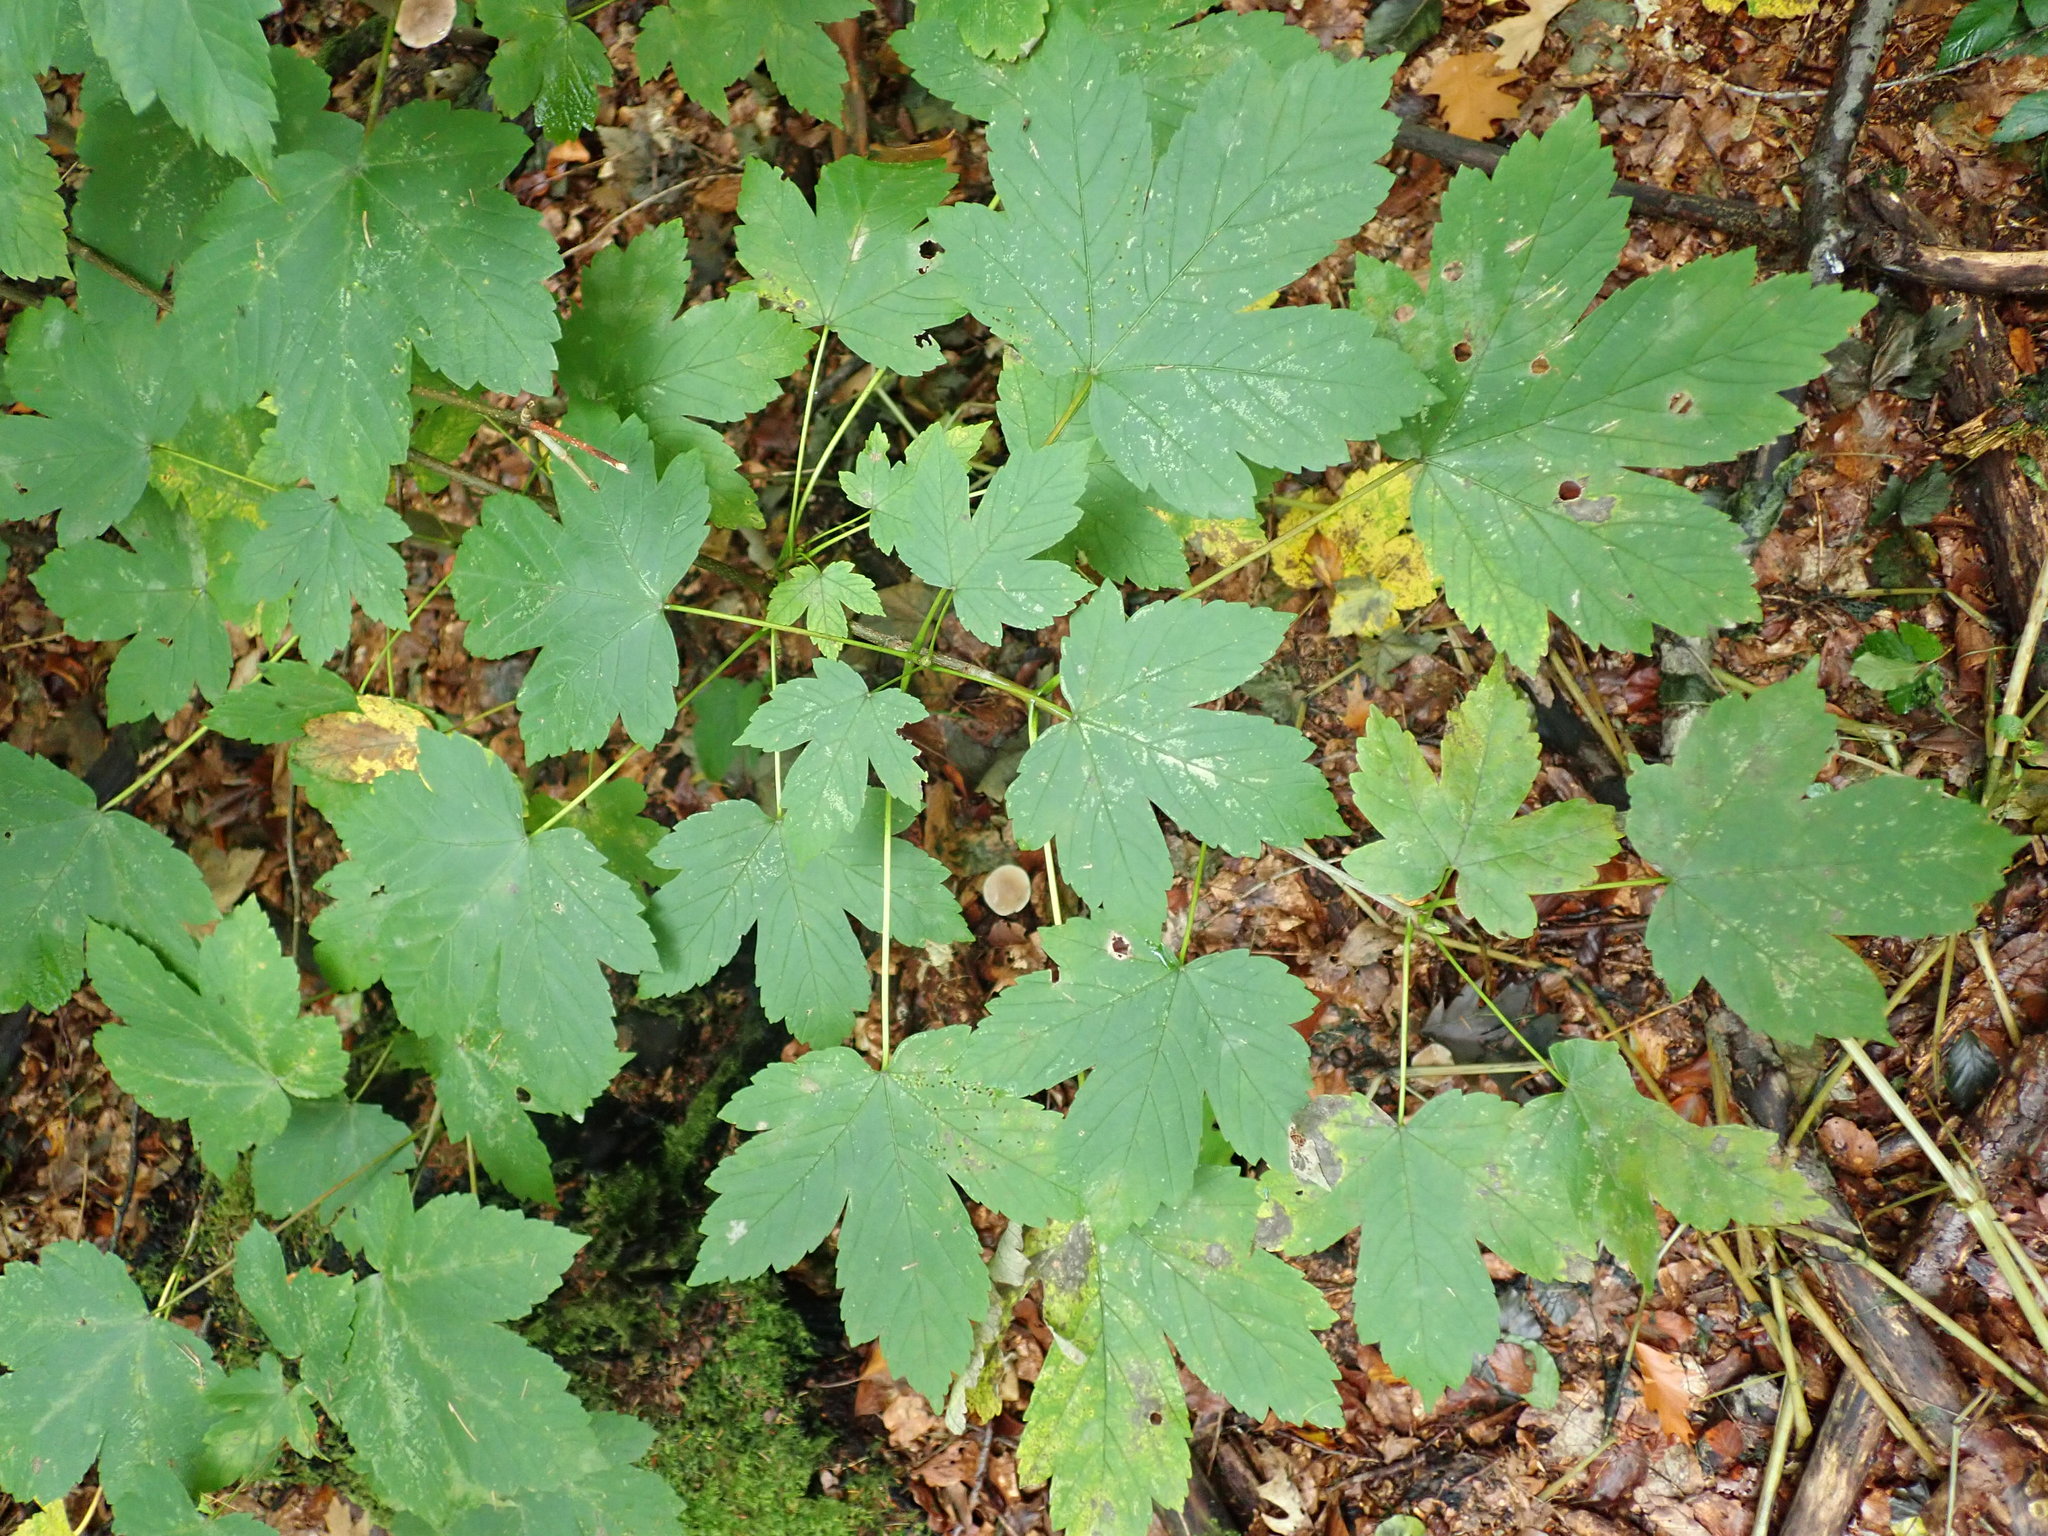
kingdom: Plantae
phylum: Tracheophyta
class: Magnoliopsida
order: Sapindales
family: Sapindaceae
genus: Acer
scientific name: Acer pseudoplatanus
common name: Sycamore
